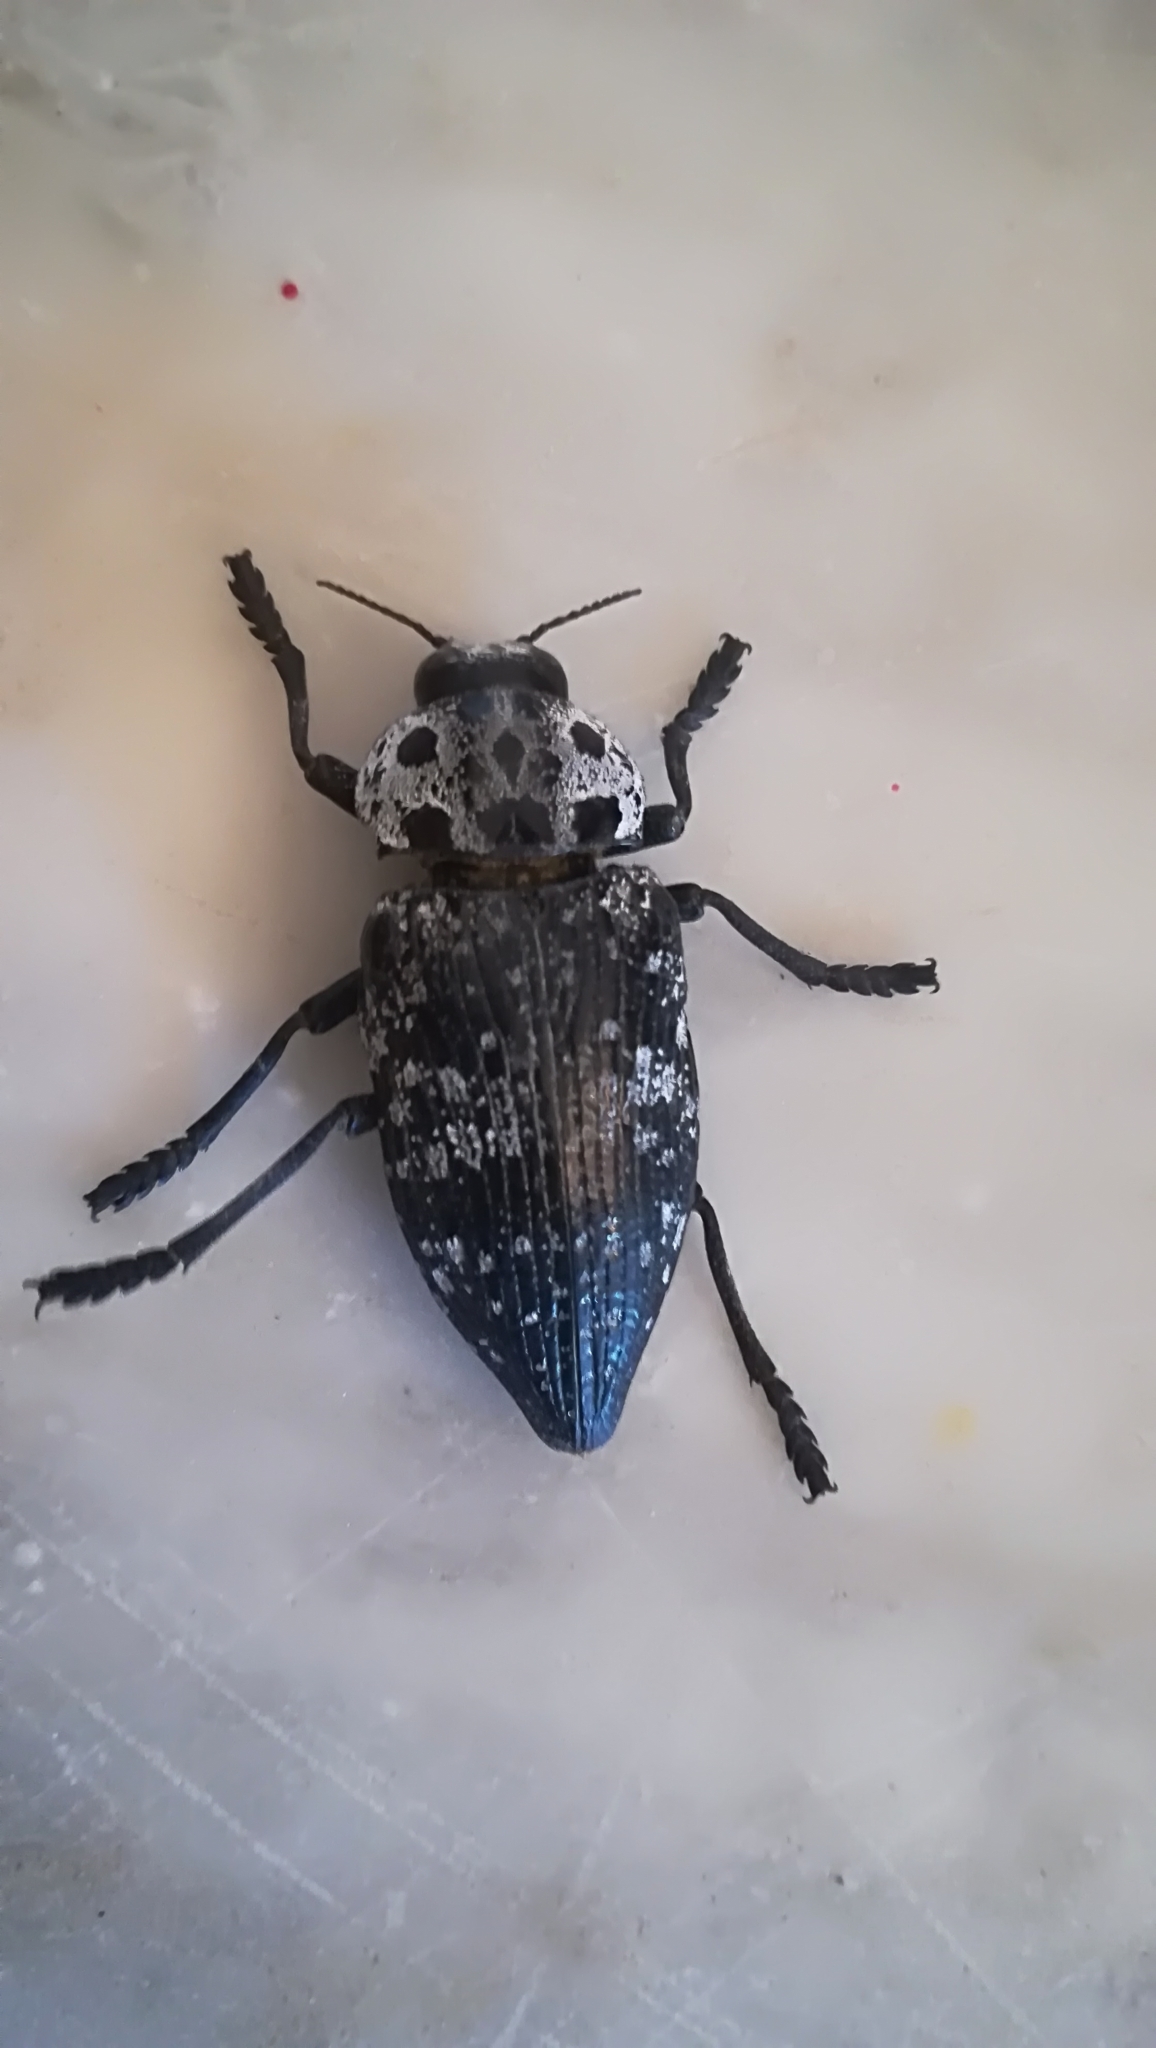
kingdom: Animalia
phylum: Arthropoda
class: Insecta
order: Coleoptera
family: Buprestidae
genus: Capnodis
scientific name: Capnodis cariosa
